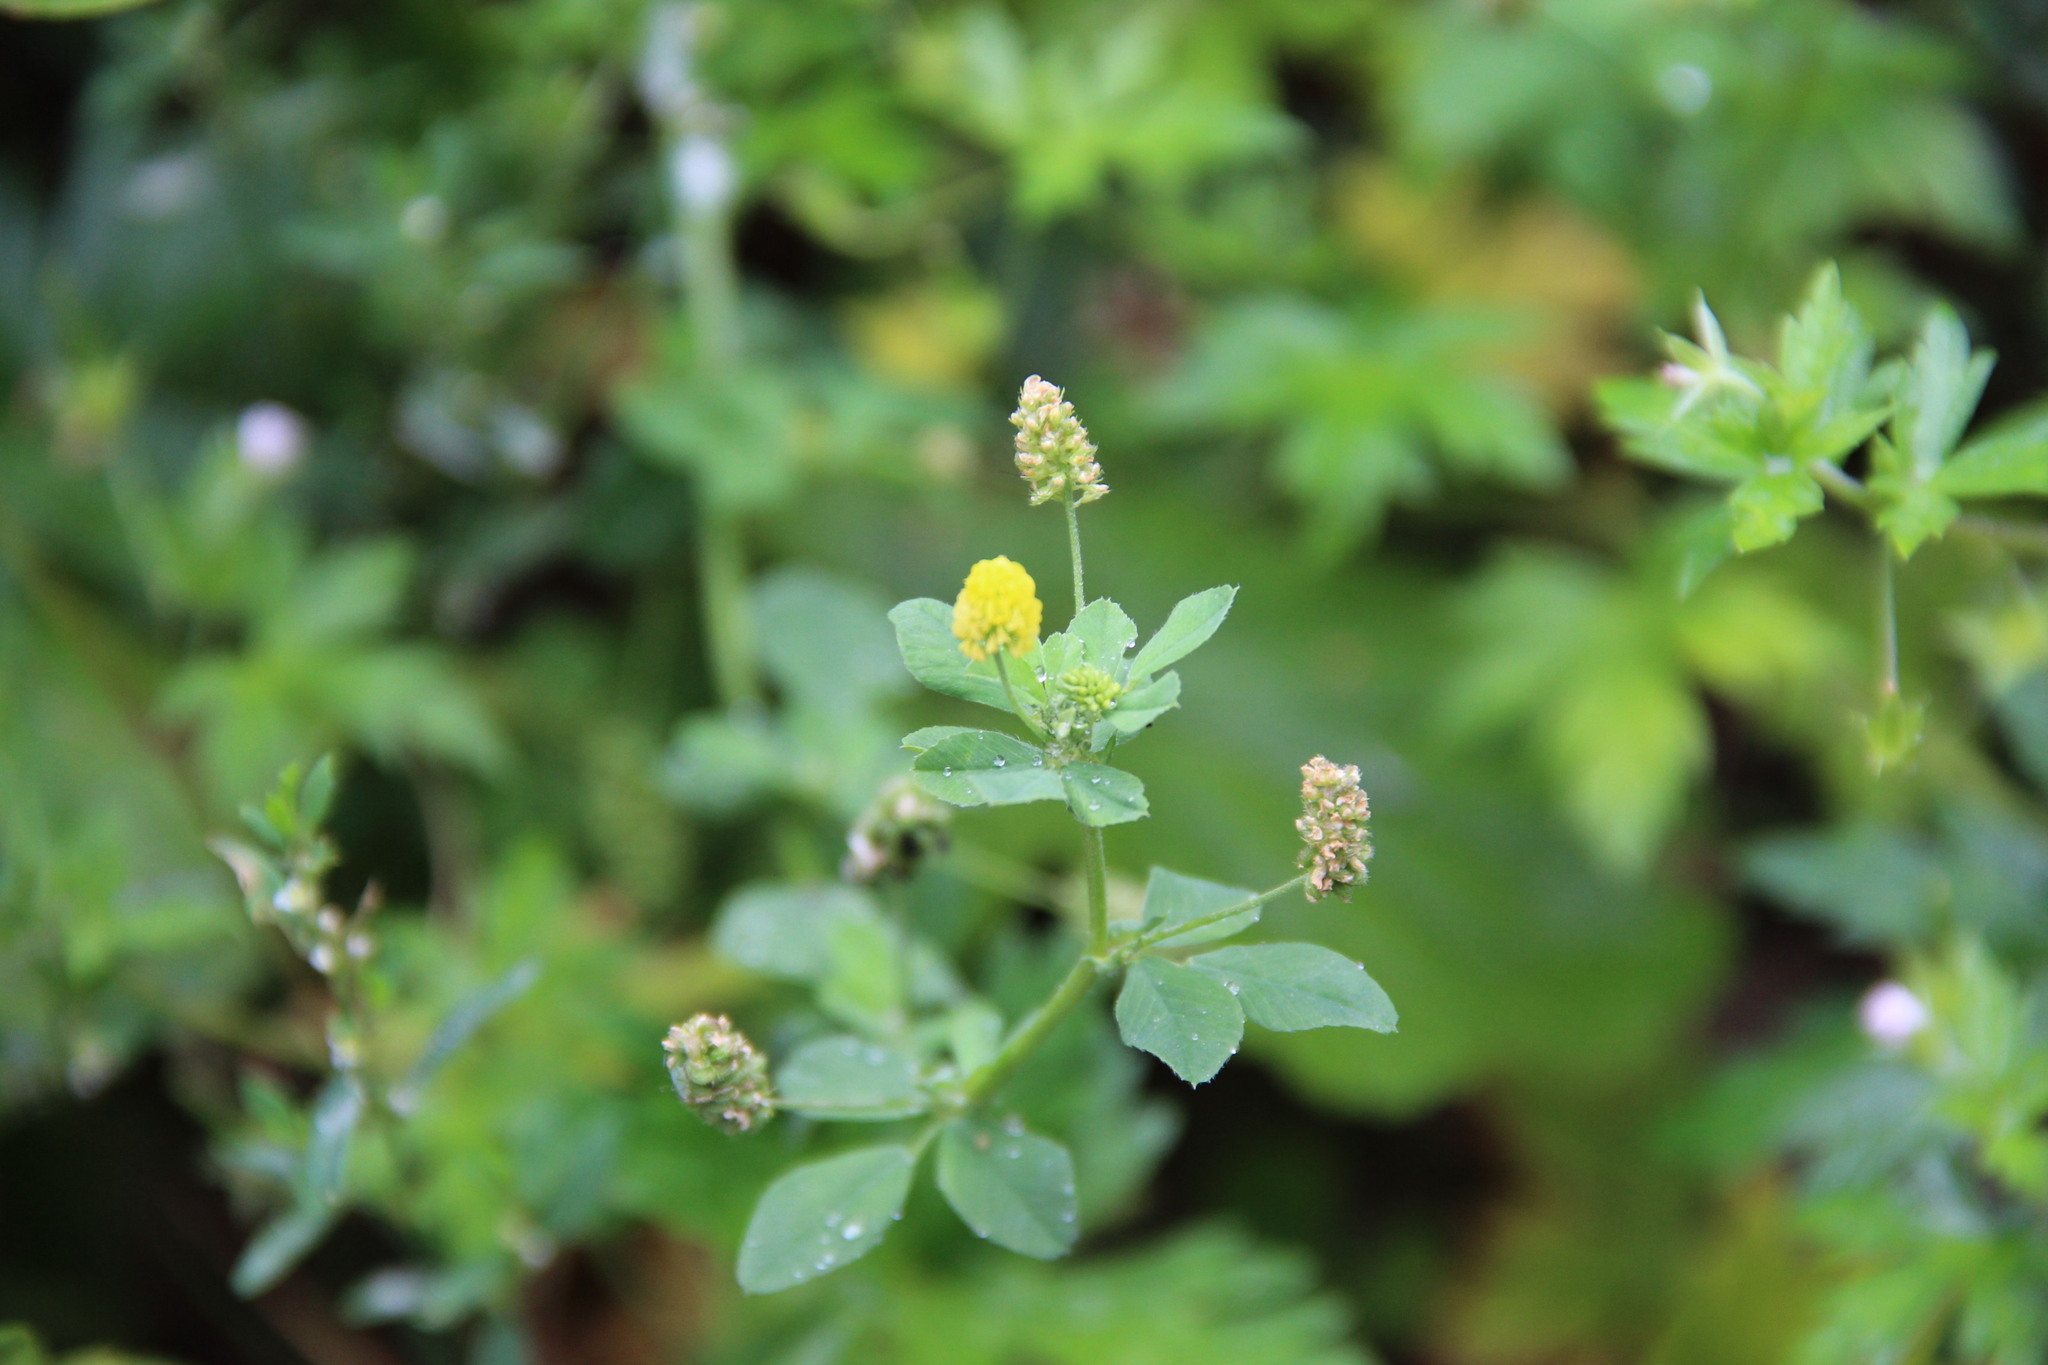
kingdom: Plantae
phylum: Tracheophyta
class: Magnoliopsida
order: Fabales
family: Fabaceae
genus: Medicago
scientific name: Medicago lupulina
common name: Black medick
